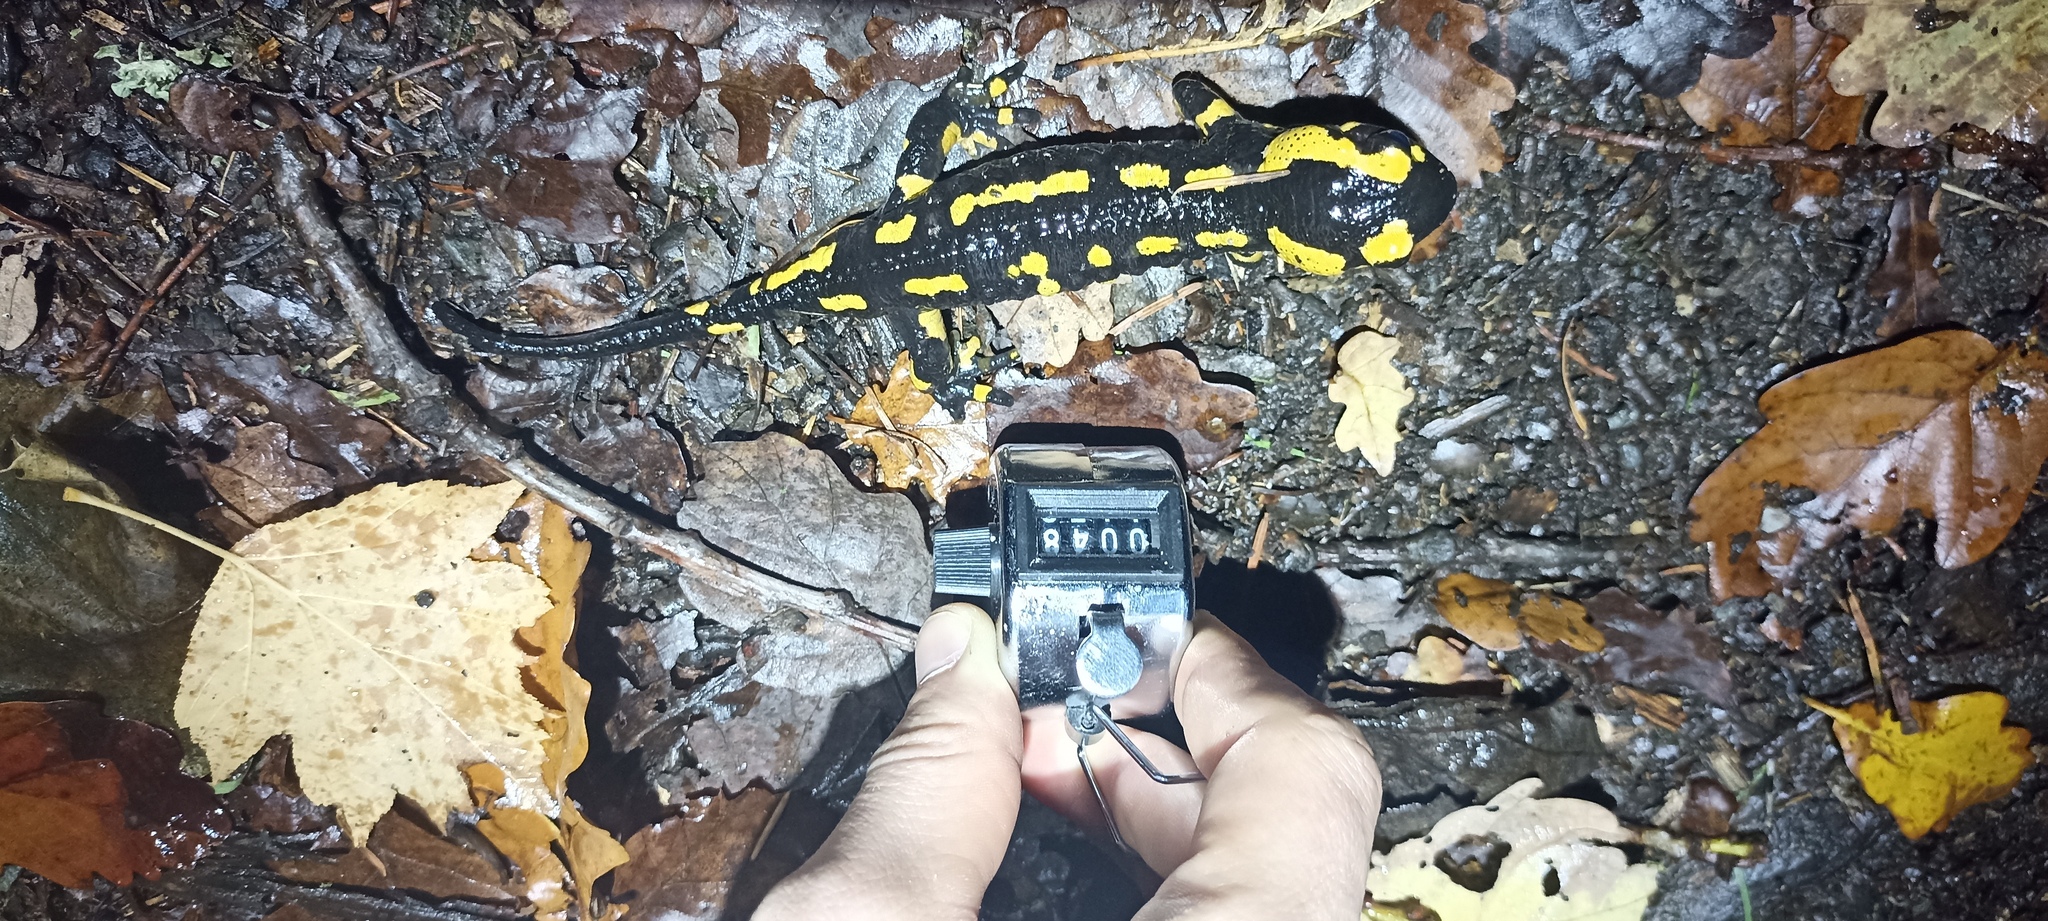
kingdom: Animalia
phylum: Chordata
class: Amphibia
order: Caudata
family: Salamandridae
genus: Salamandra
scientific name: Salamandra salamandra
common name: Fire salamander
